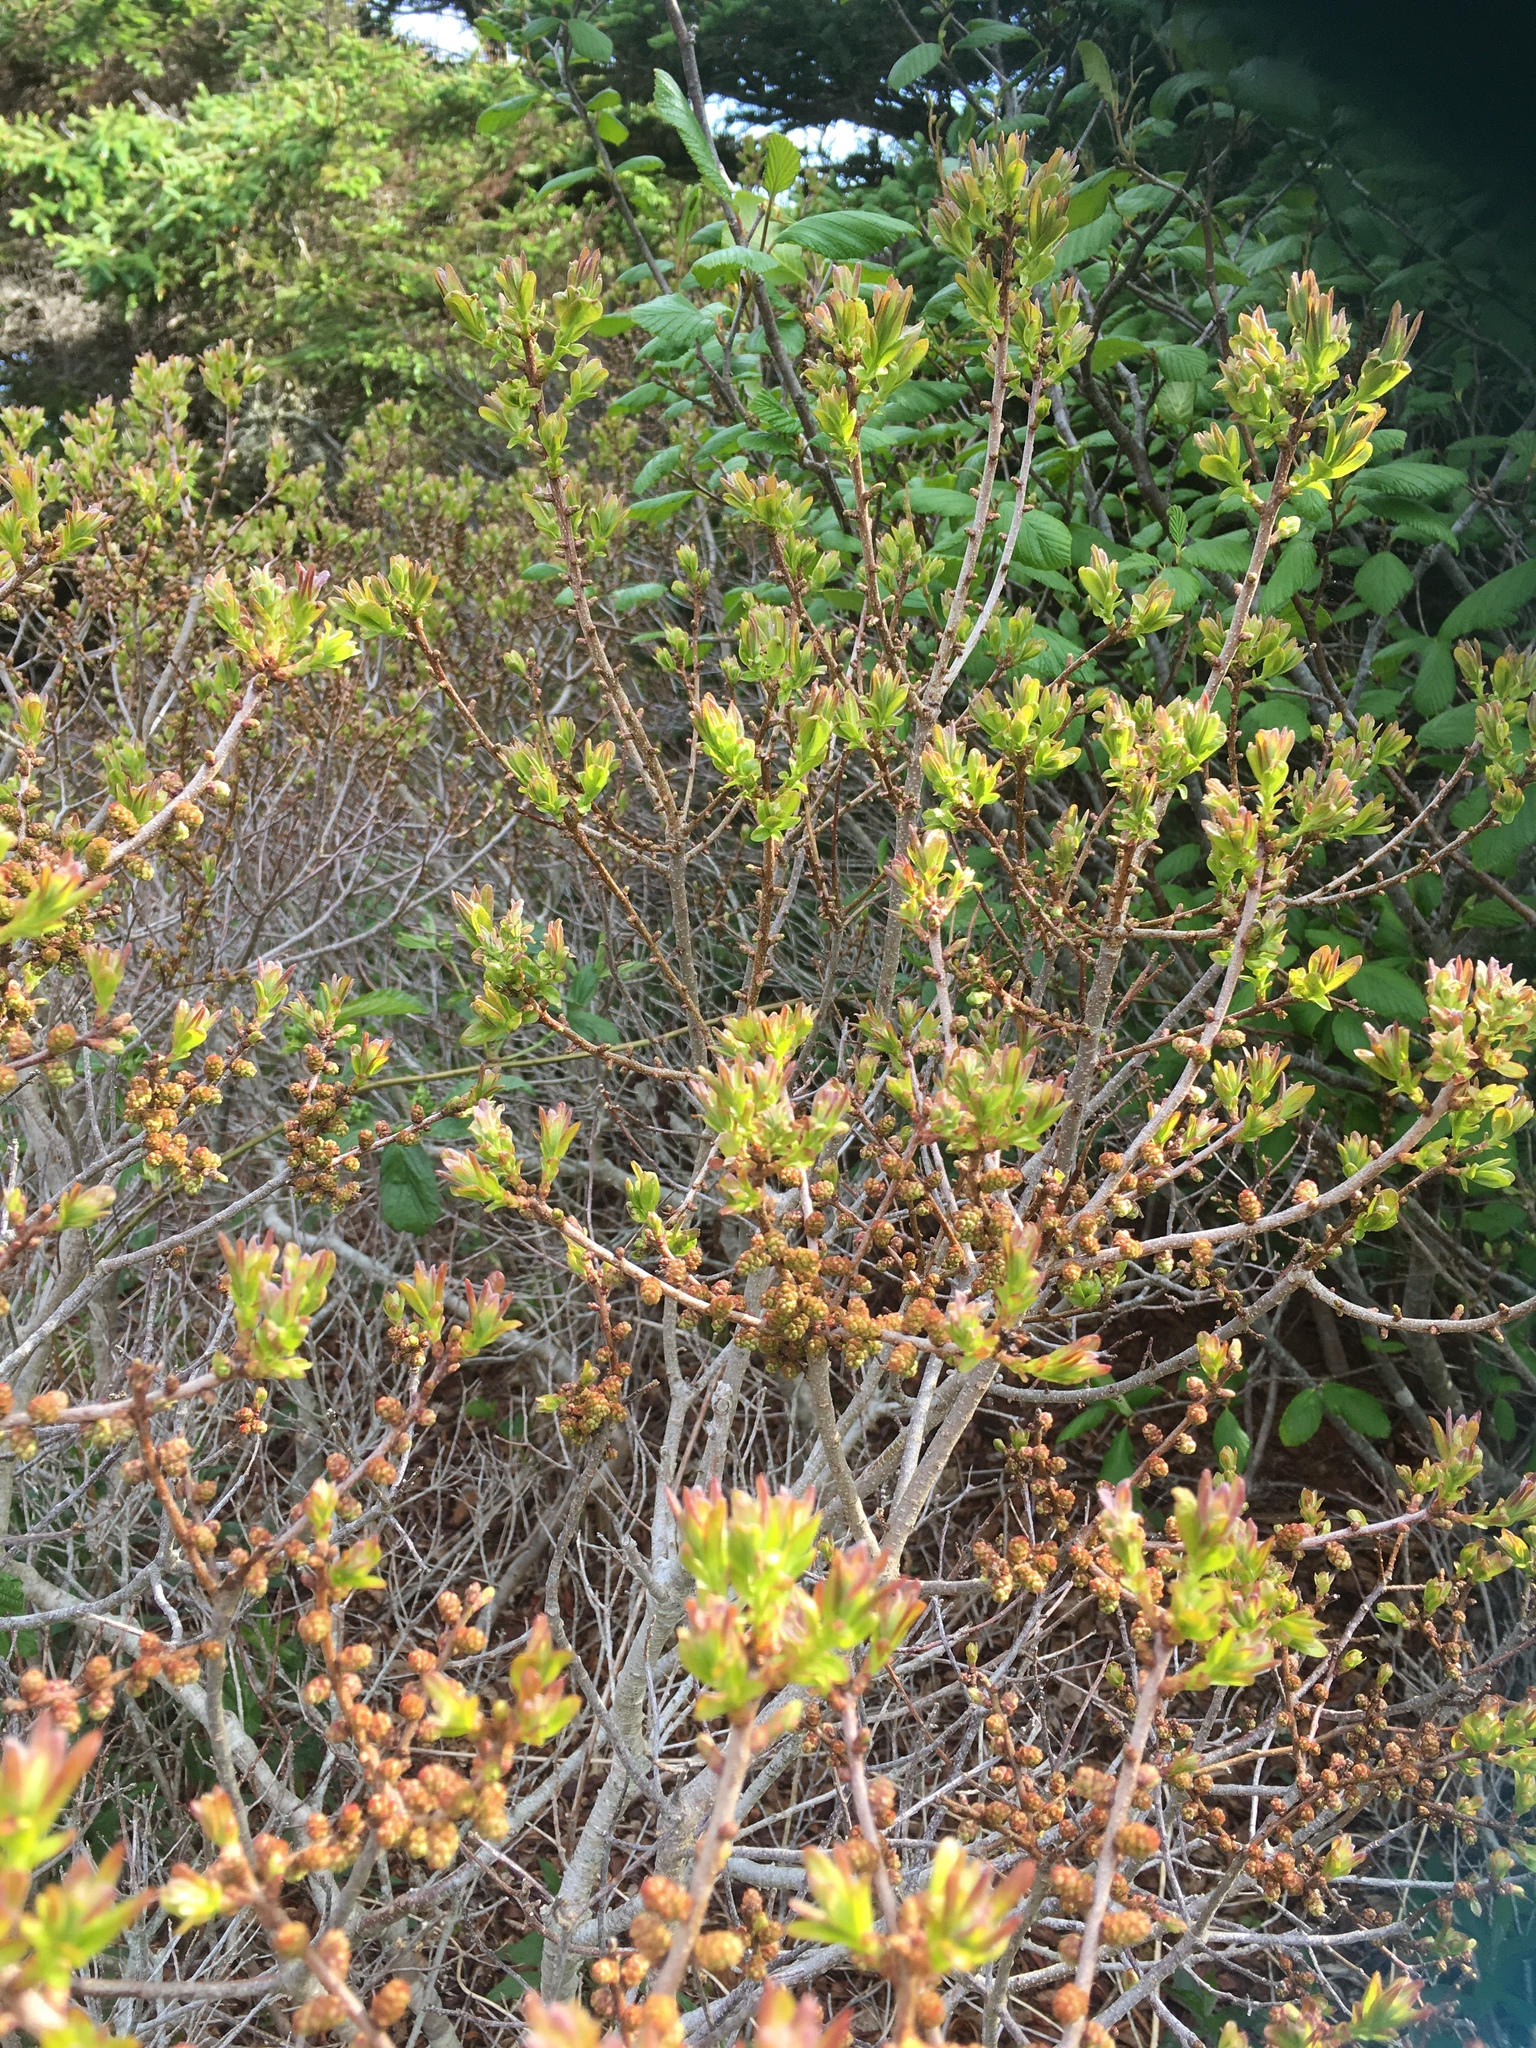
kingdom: Plantae
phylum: Tracheophyta
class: Magnoliopsida
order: Fagales
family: Myricaceae
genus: Morella
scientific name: Morella pensylvanica
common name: Northern bayberry
